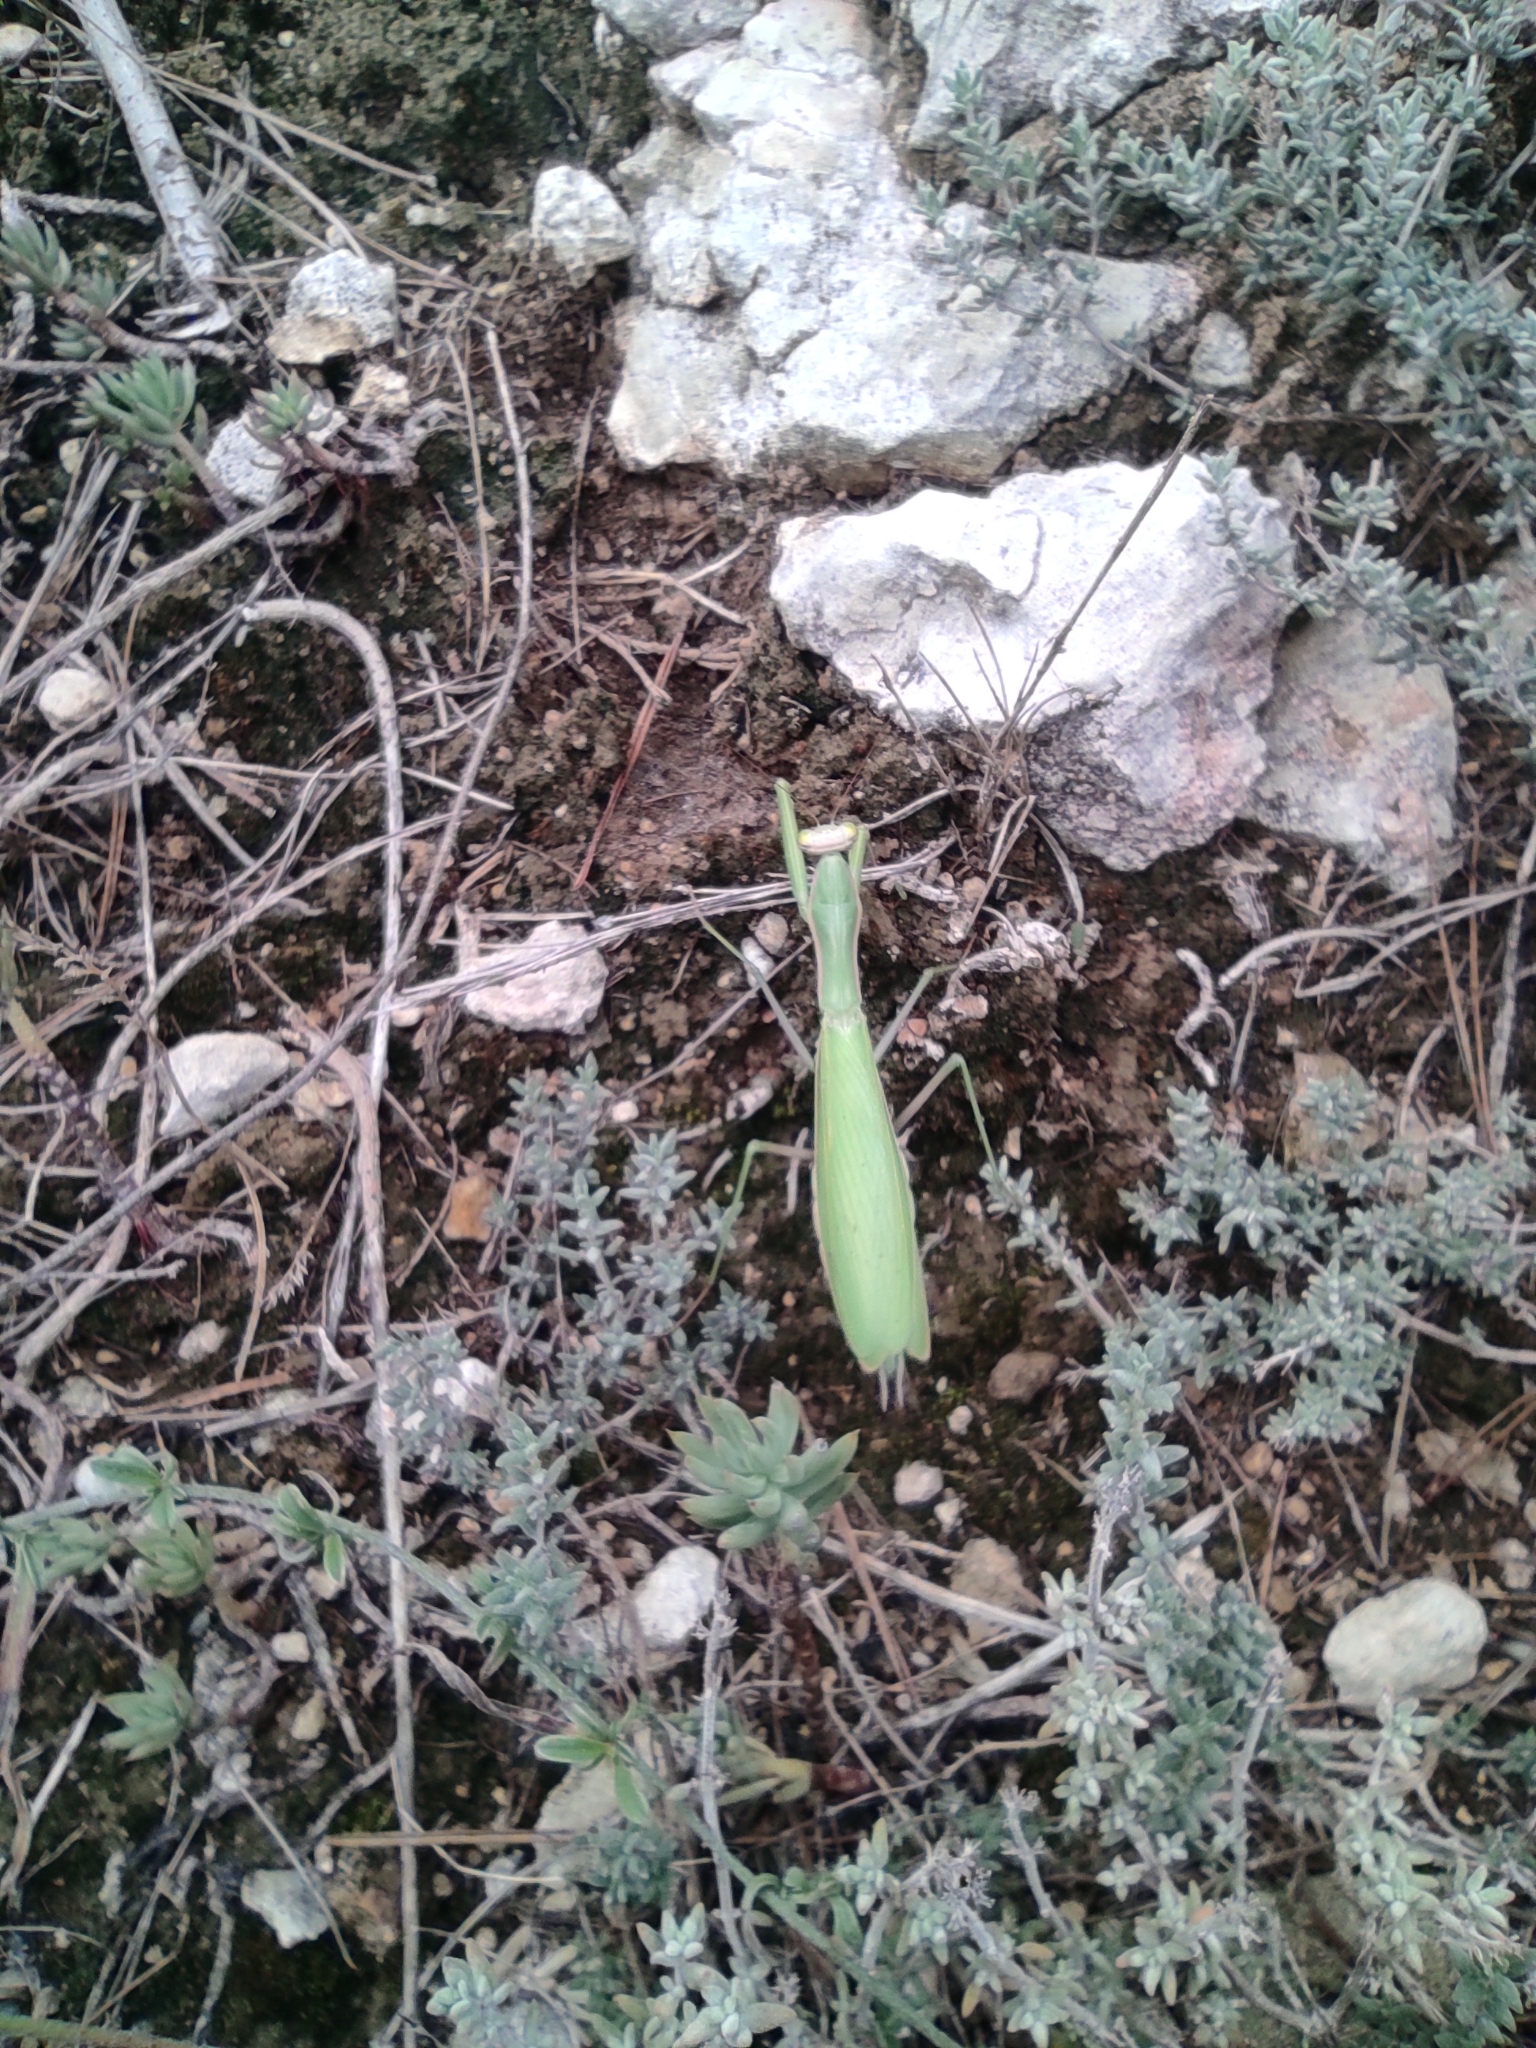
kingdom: Animalia
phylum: Arthropoda
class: Insecta
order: Mantodea
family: Mantidae
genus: Mantis
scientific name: Mantis religiosa
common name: Praying mantis
